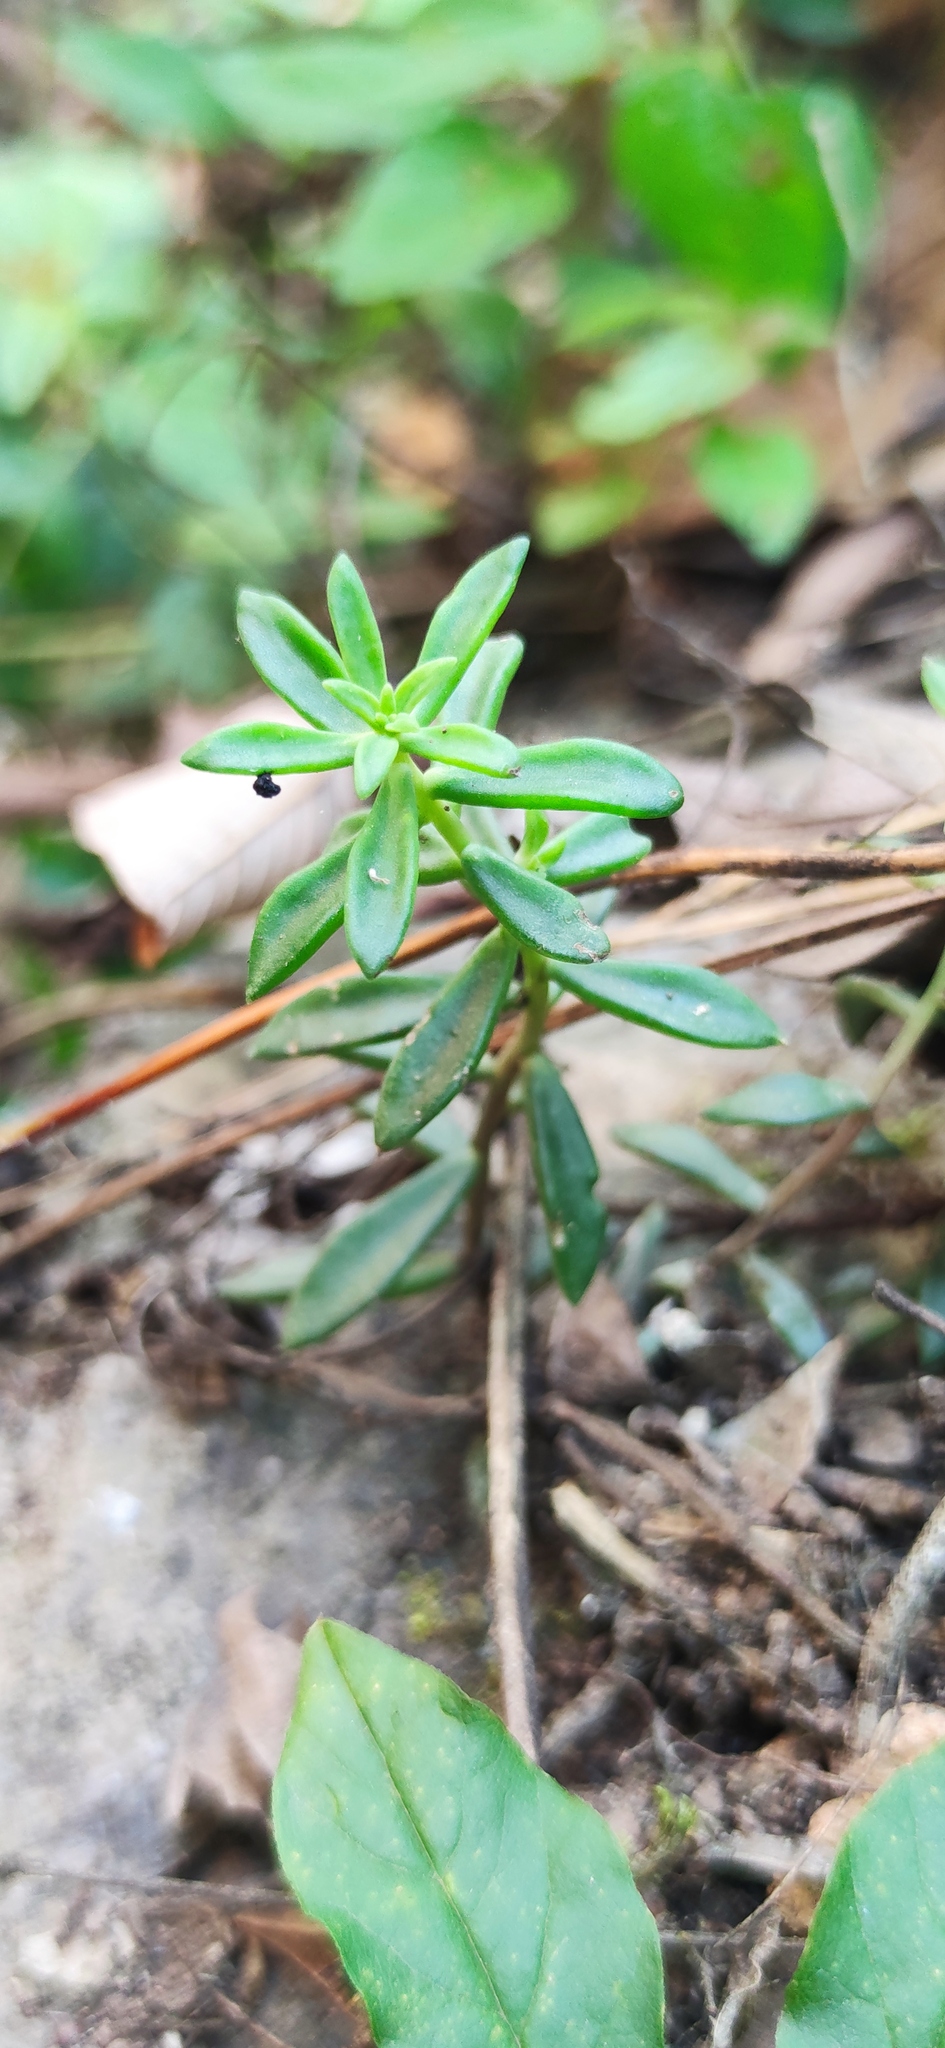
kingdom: Plantae
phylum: Tracheophyta
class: Magnoliopsida
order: Saxifragales
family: Crassulaceae
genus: Sedum
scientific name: Sedum calcicola
